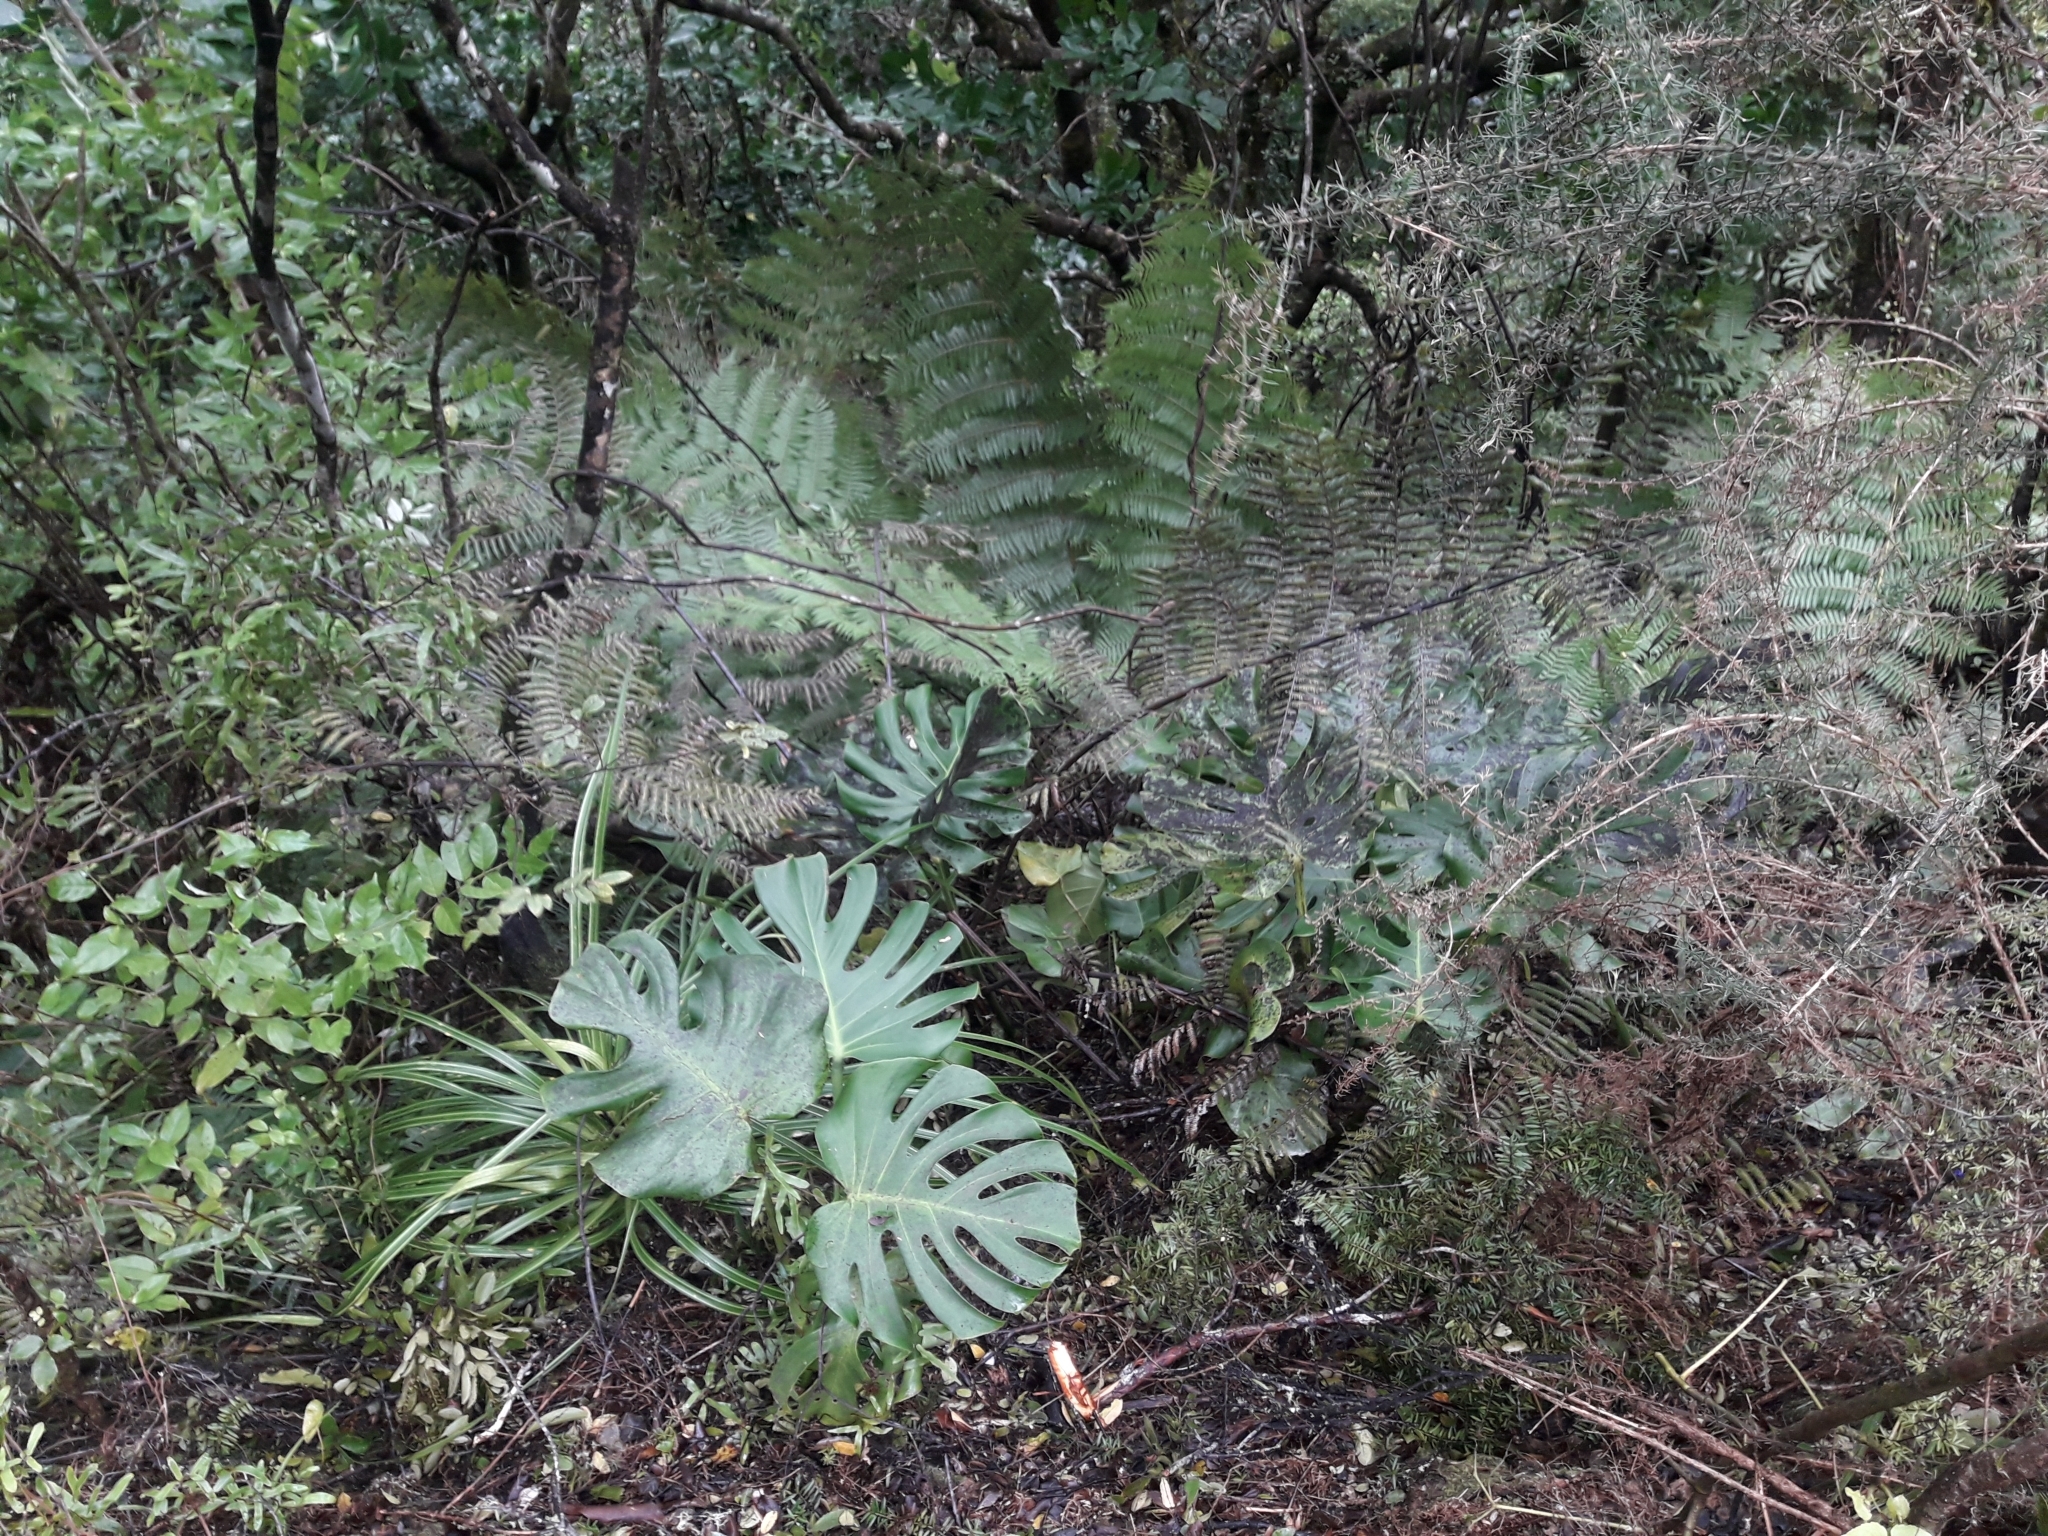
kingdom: Plantae
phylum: Tracheophyta
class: Liliopsida
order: Alismatales
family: Araceae
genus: Monstera
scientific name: Monstera deliciosa
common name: Cut-leaf-philodendron
